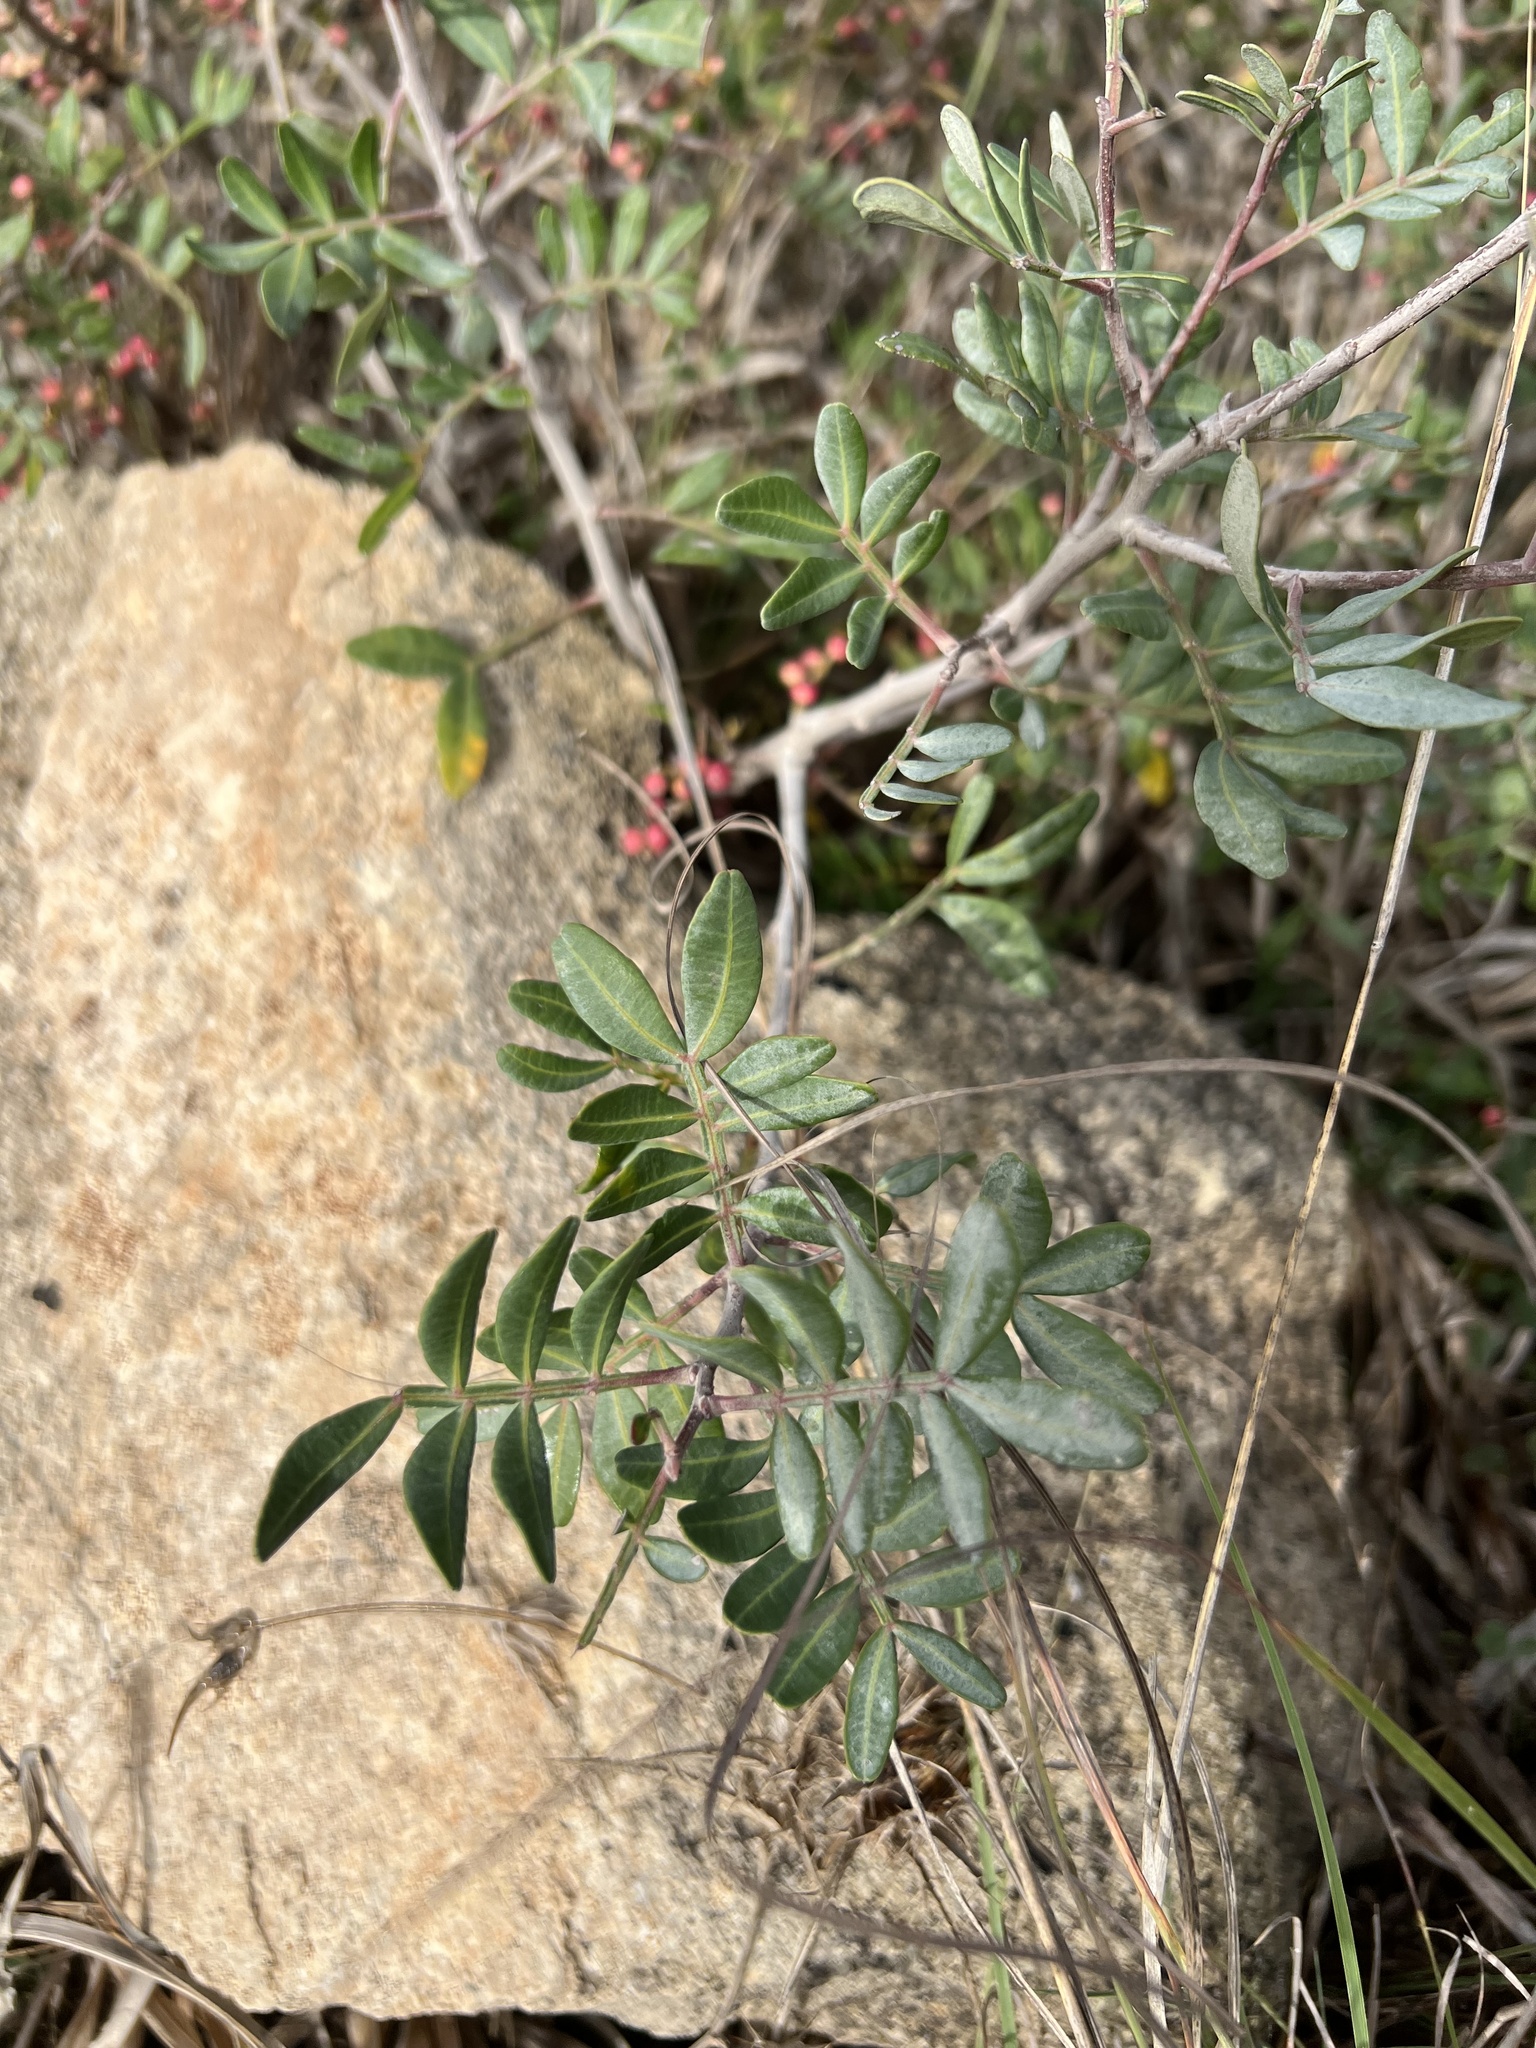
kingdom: Plantae
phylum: Tracheophyta
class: Magnoliopsida
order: Sapindales
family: Anacardiaceae
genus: Pistacia
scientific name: Pistacia lentiscus
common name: Lentisk
